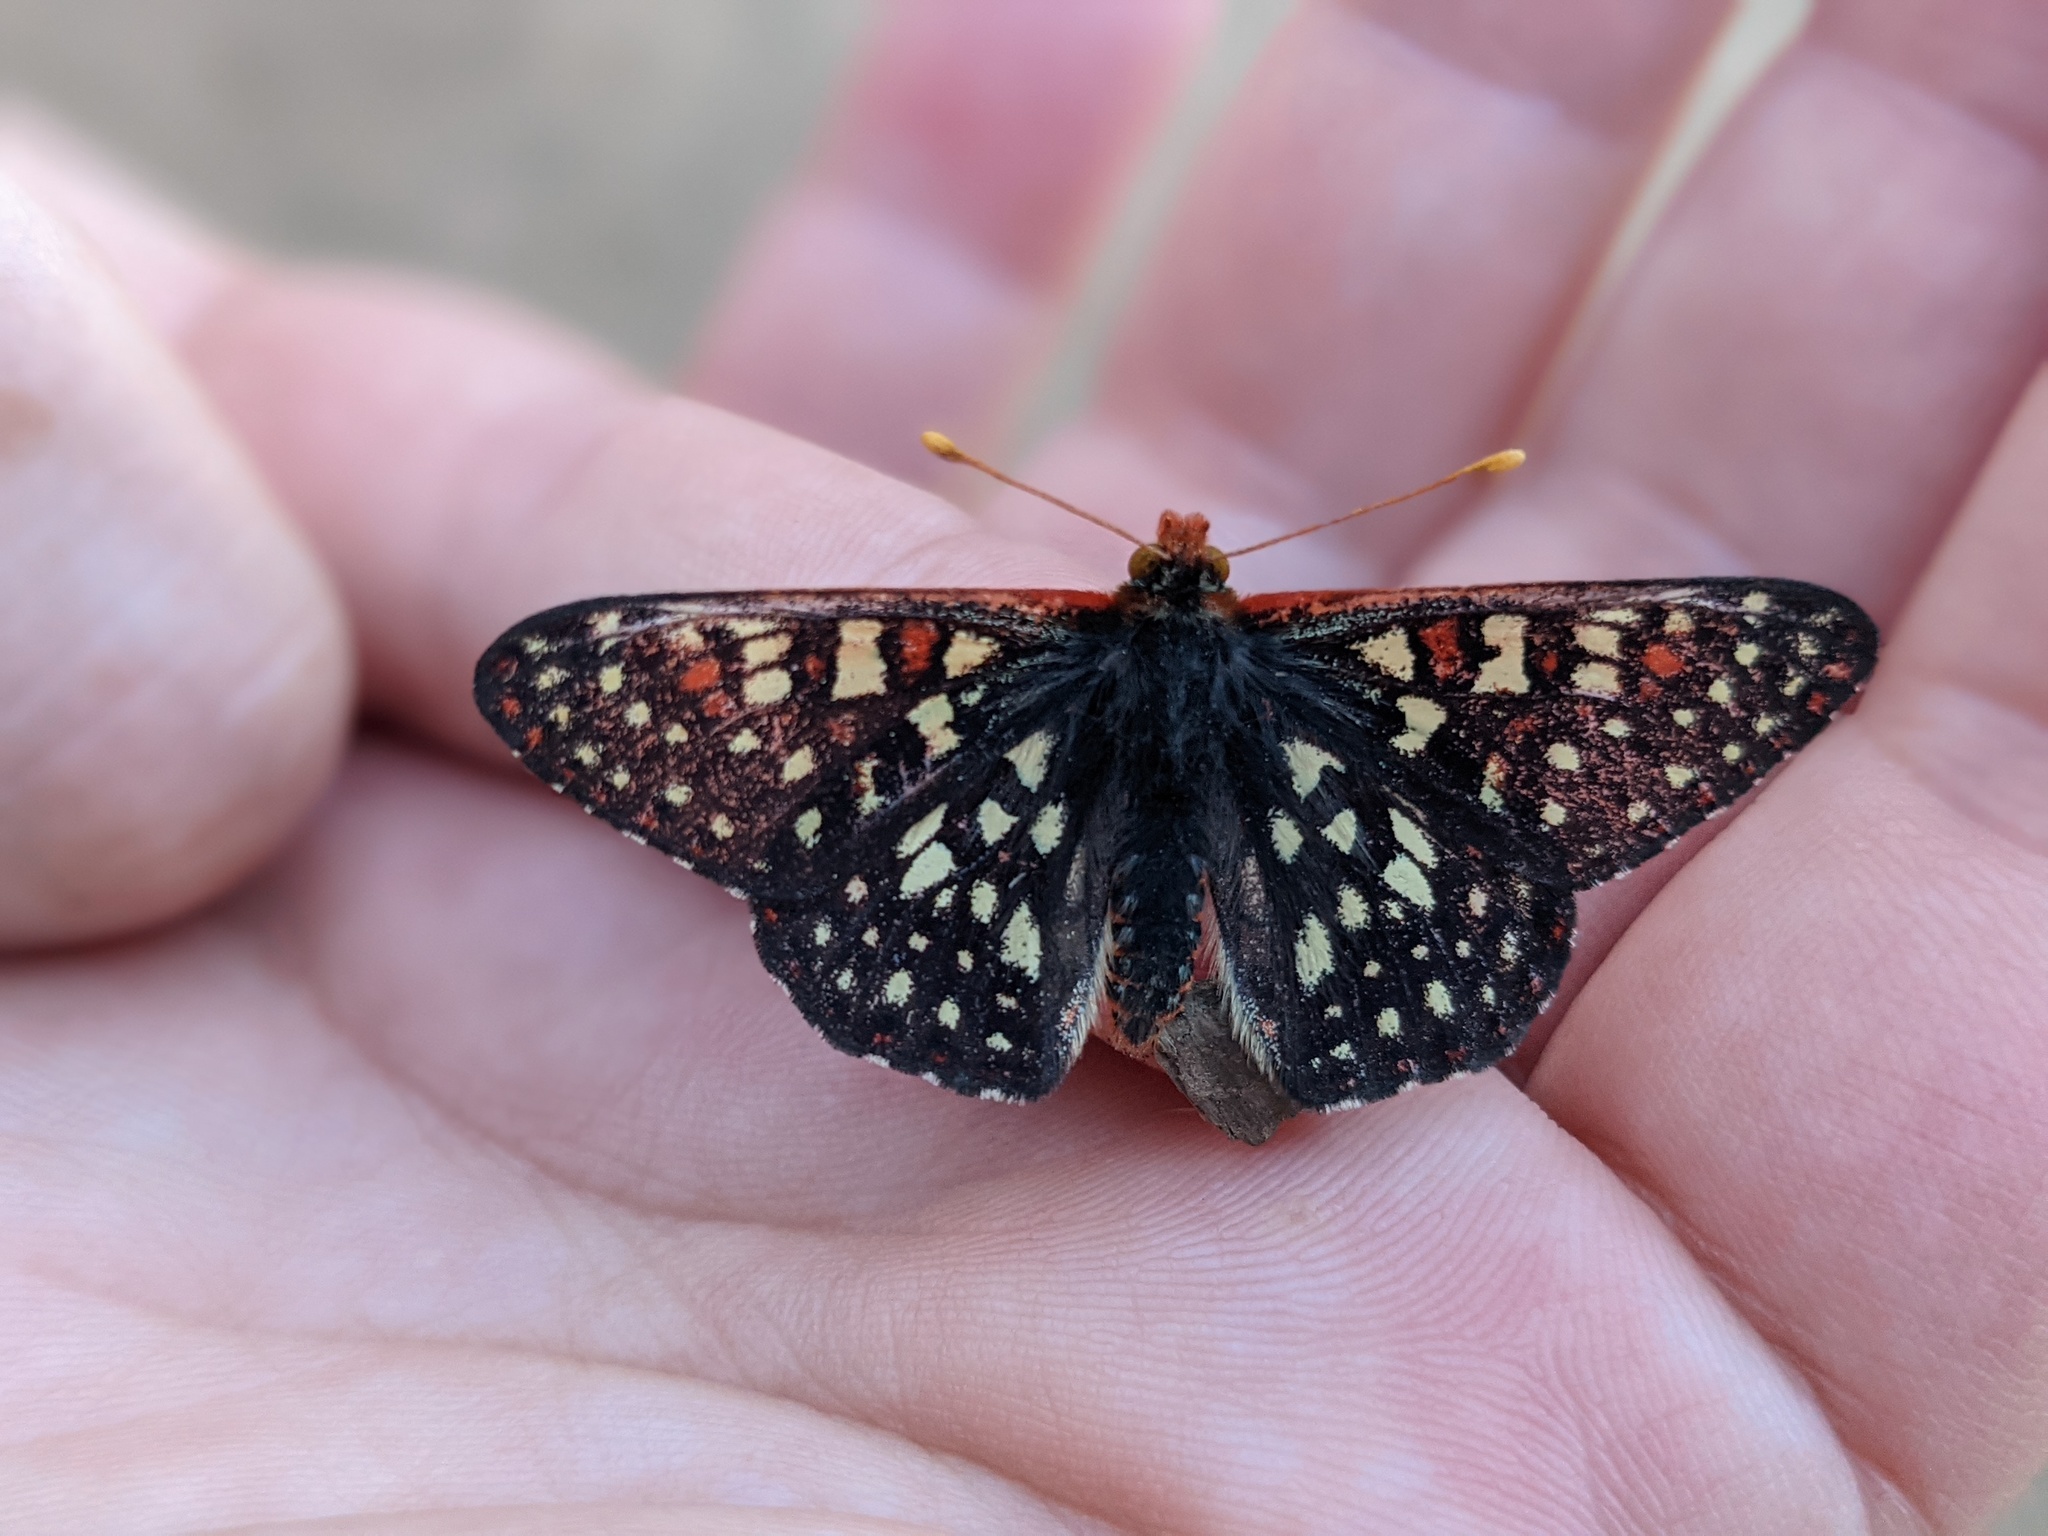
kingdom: Animalia
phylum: Arthropoda
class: Insecta
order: Lepidoptera
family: Nymphalidae
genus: Occidryas
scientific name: Occidryas chalcedona
